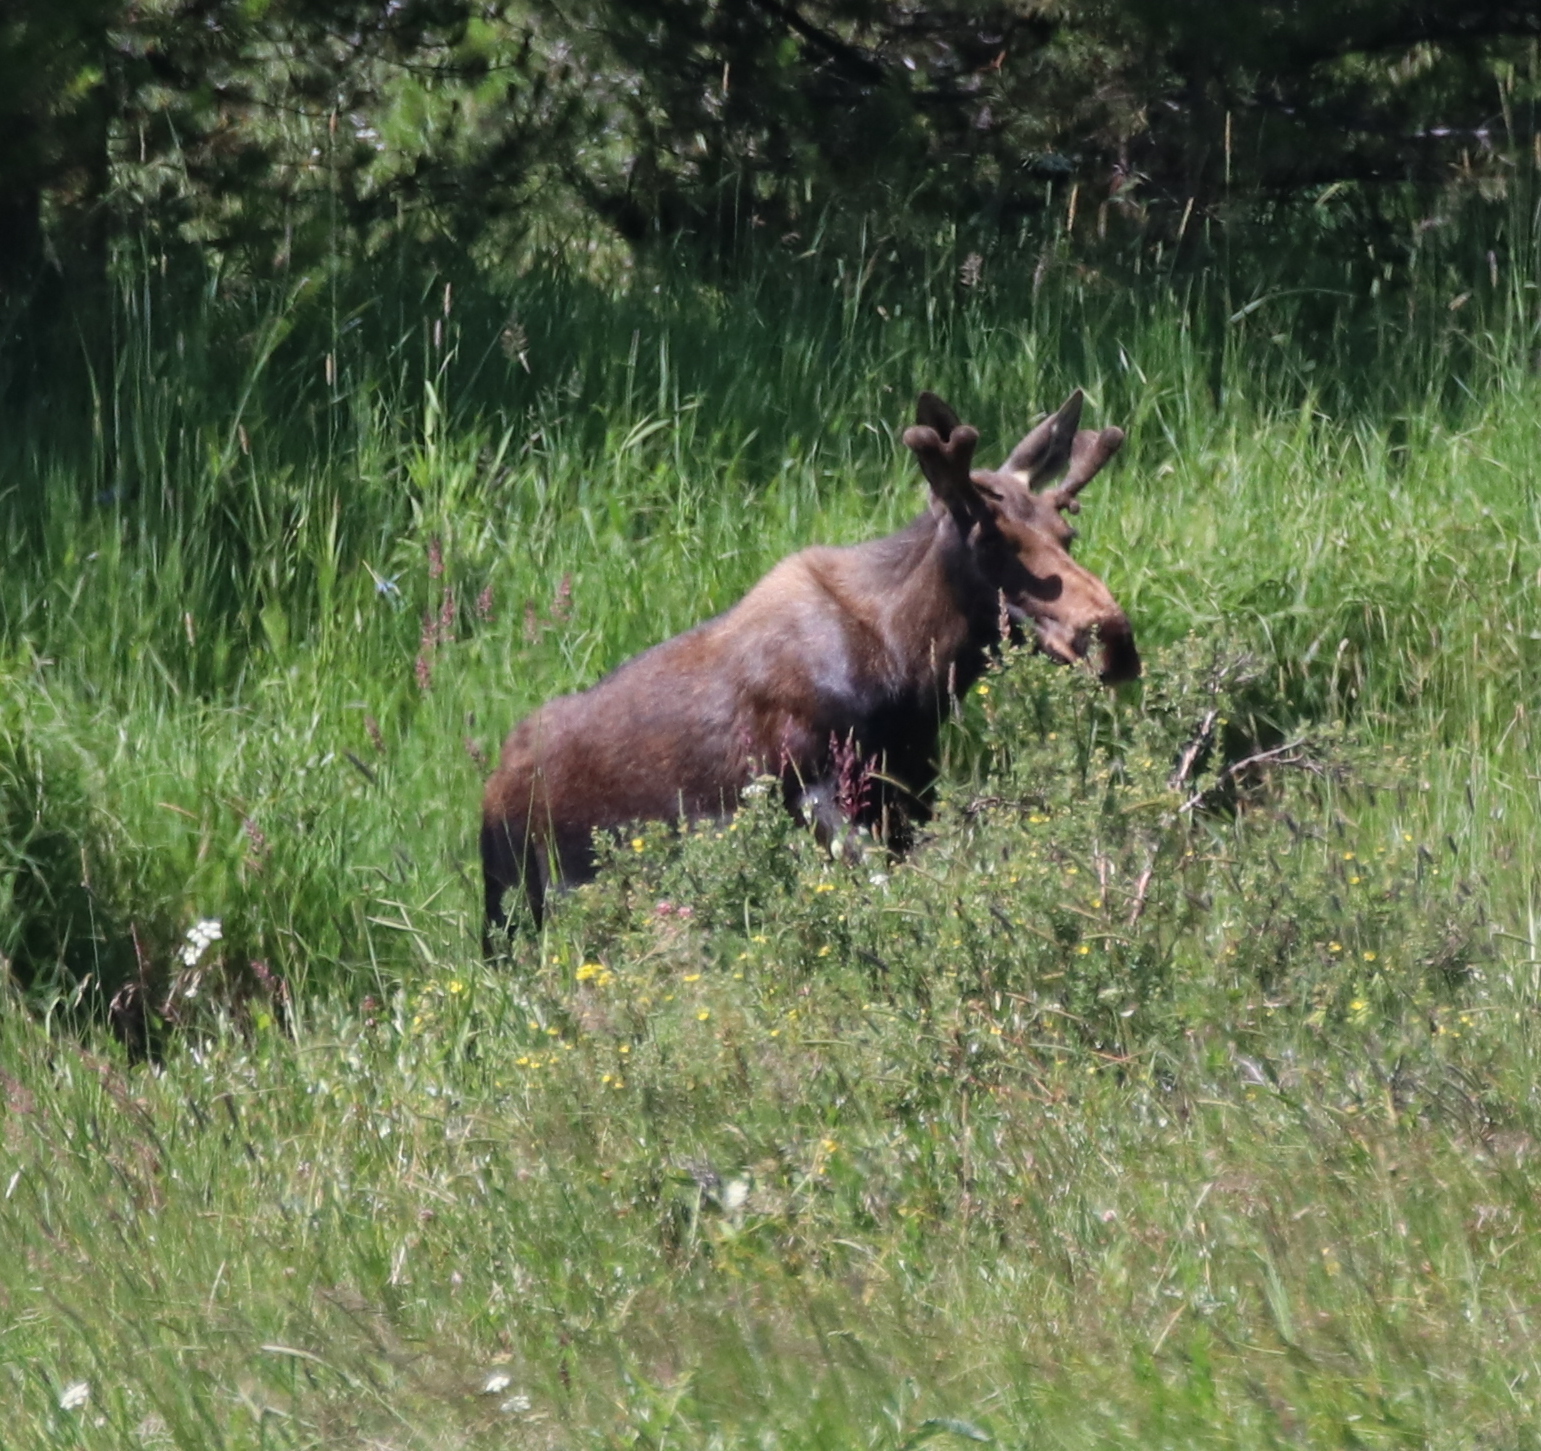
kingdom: Animalia
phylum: Chordata
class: Mammalia
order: Artiodactyla
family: Cervidae
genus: Alces
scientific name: Alces alces
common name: Moose
